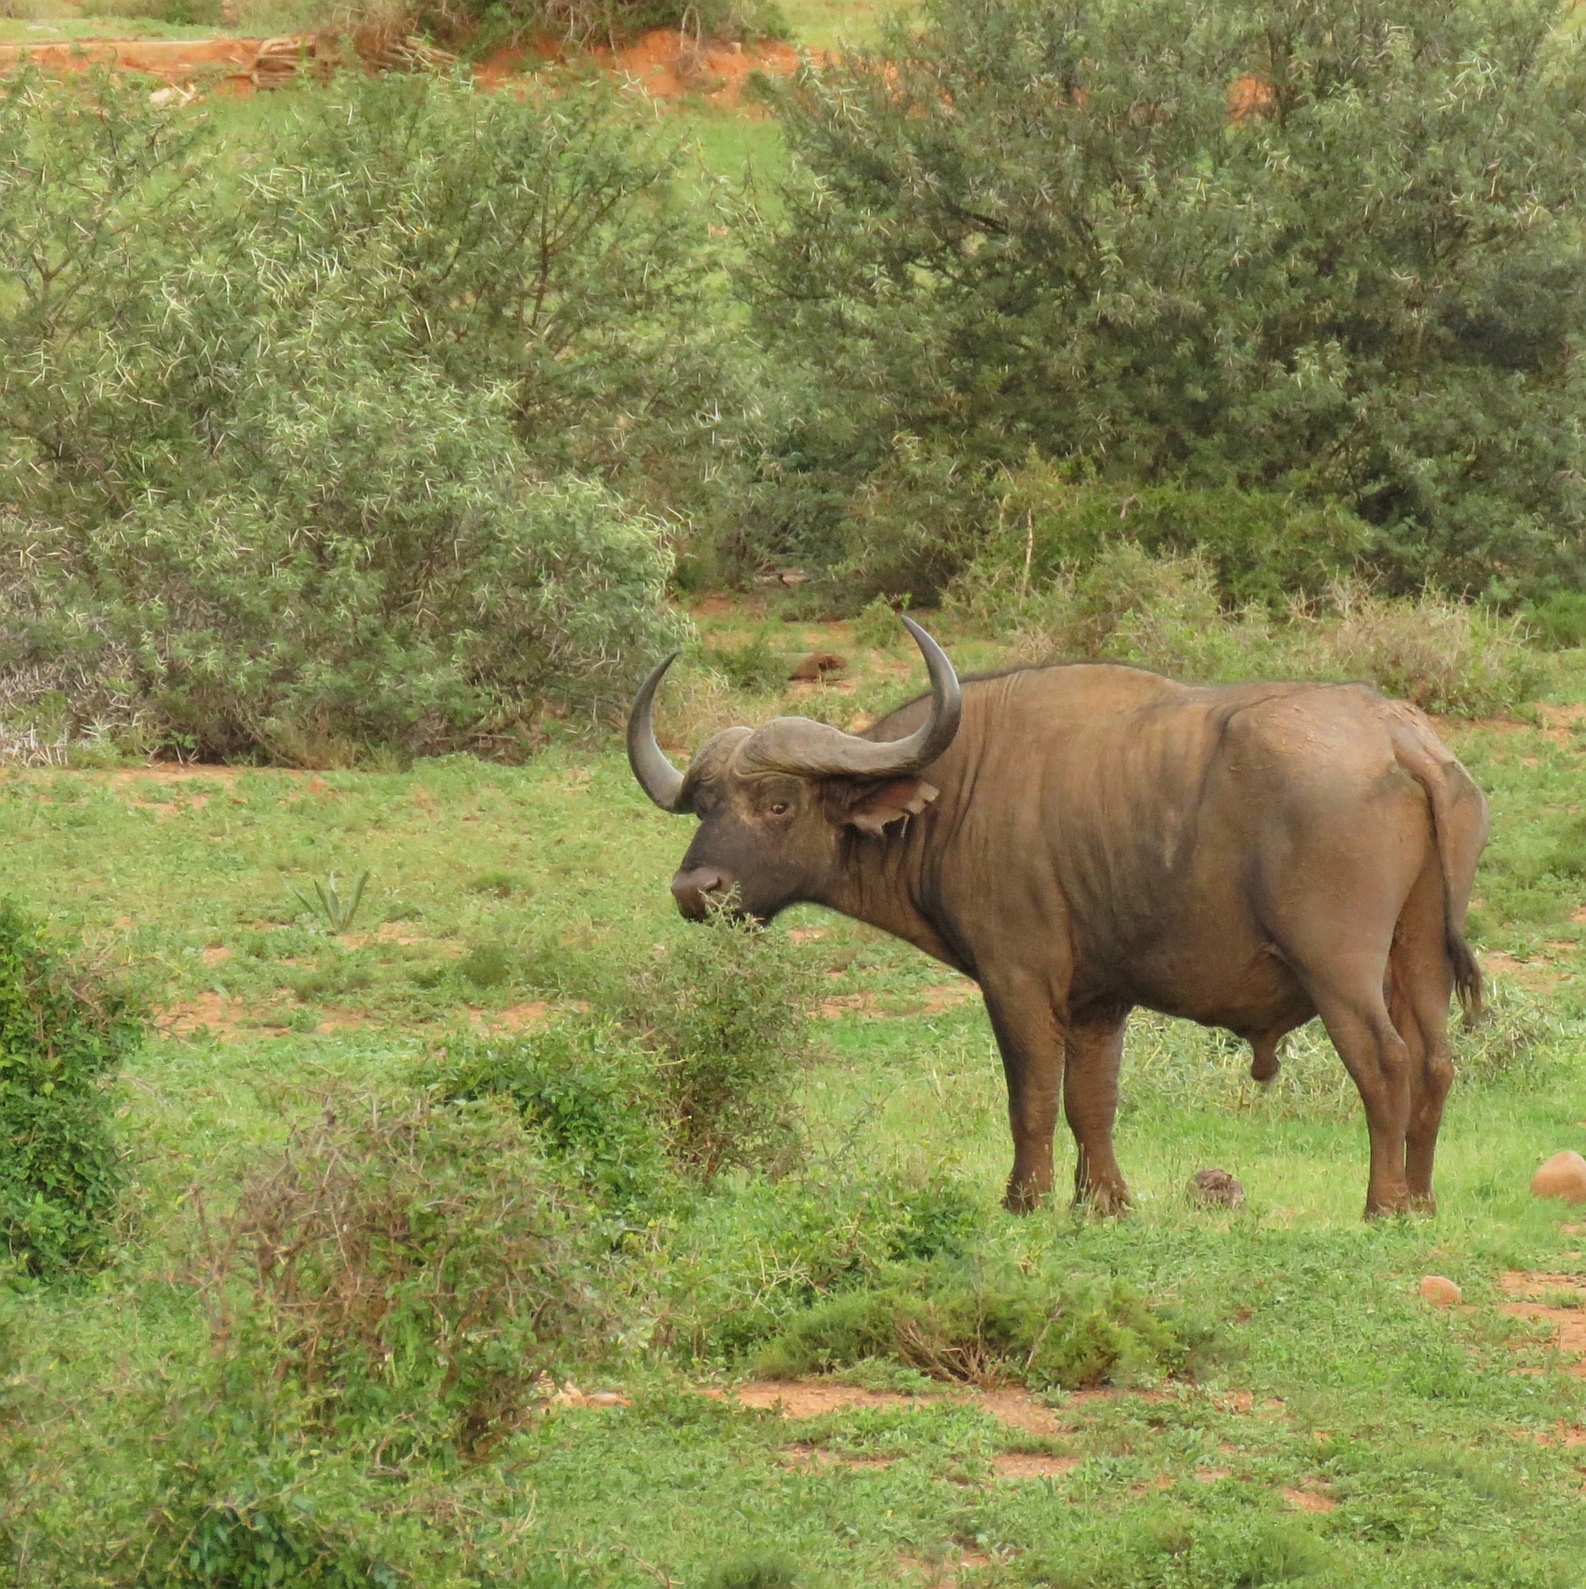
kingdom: Animalia
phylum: Chordata
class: Mammalia
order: Artiodactyla
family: Bovidae
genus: Syncerus
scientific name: Syncerus caffer
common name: African buffalo
